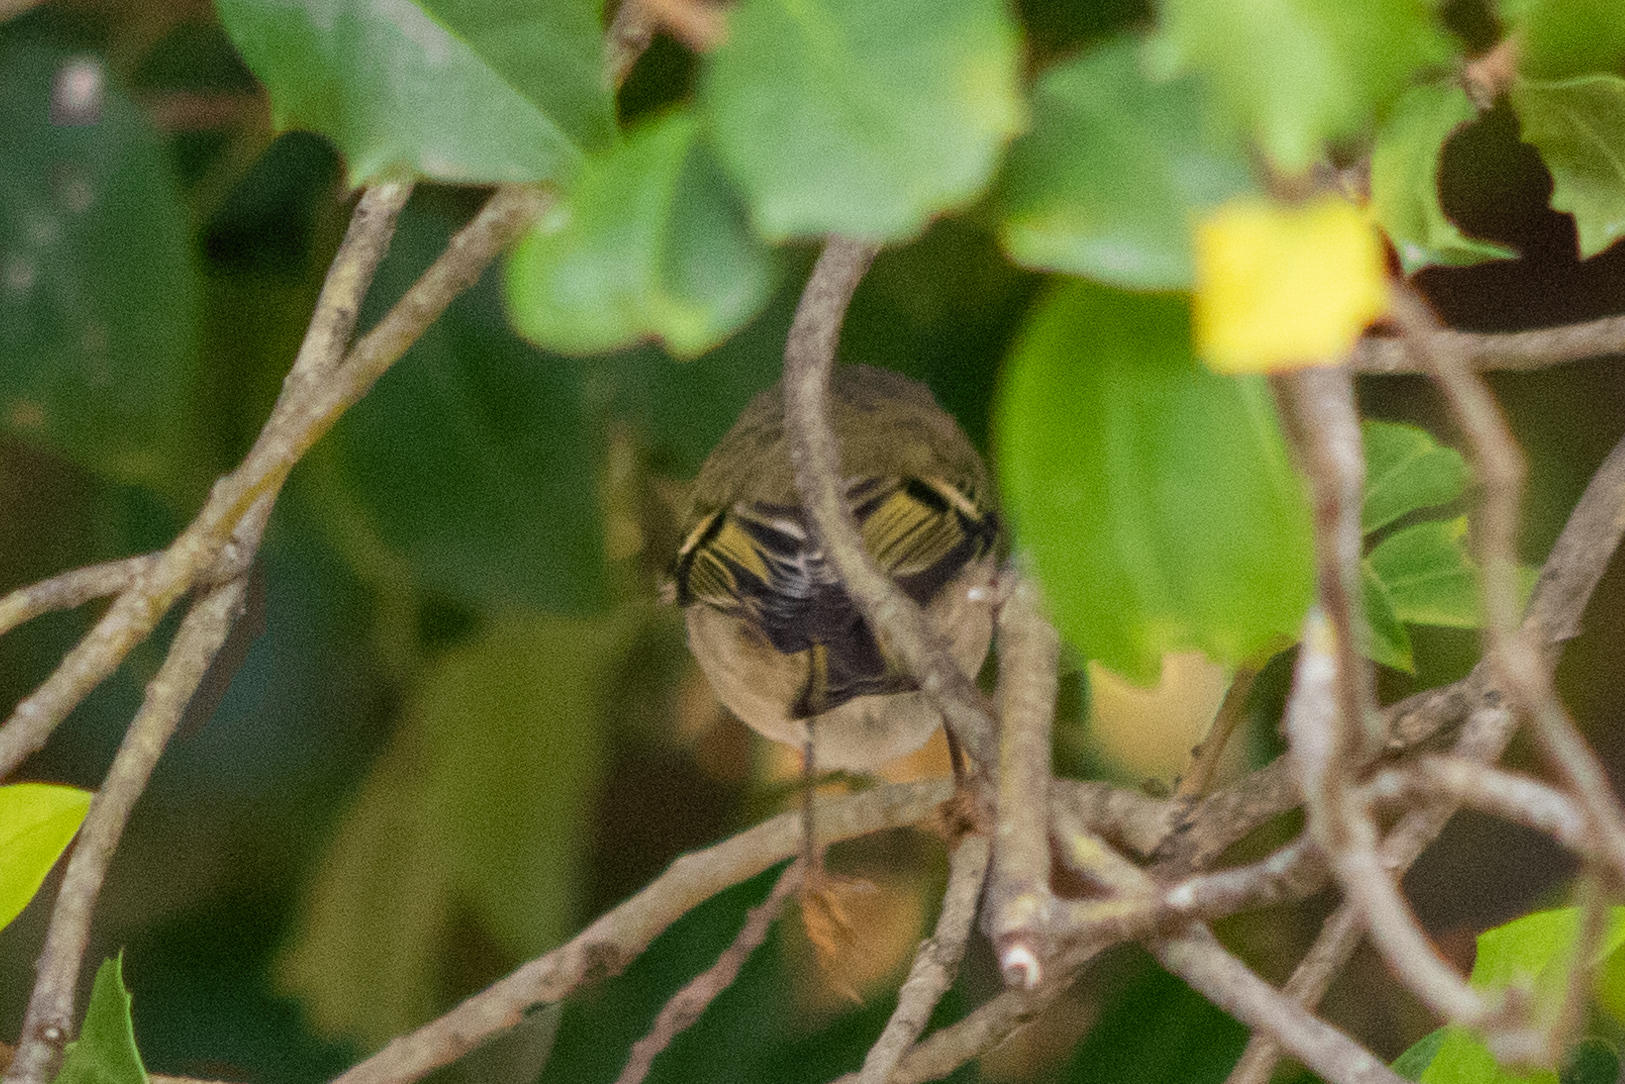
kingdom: Animalia
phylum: Chordata
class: Aves
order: Passeriformes
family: Regulidae
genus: Regulus
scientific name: Regulus satrapa
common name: Golden-crowned kinglet
